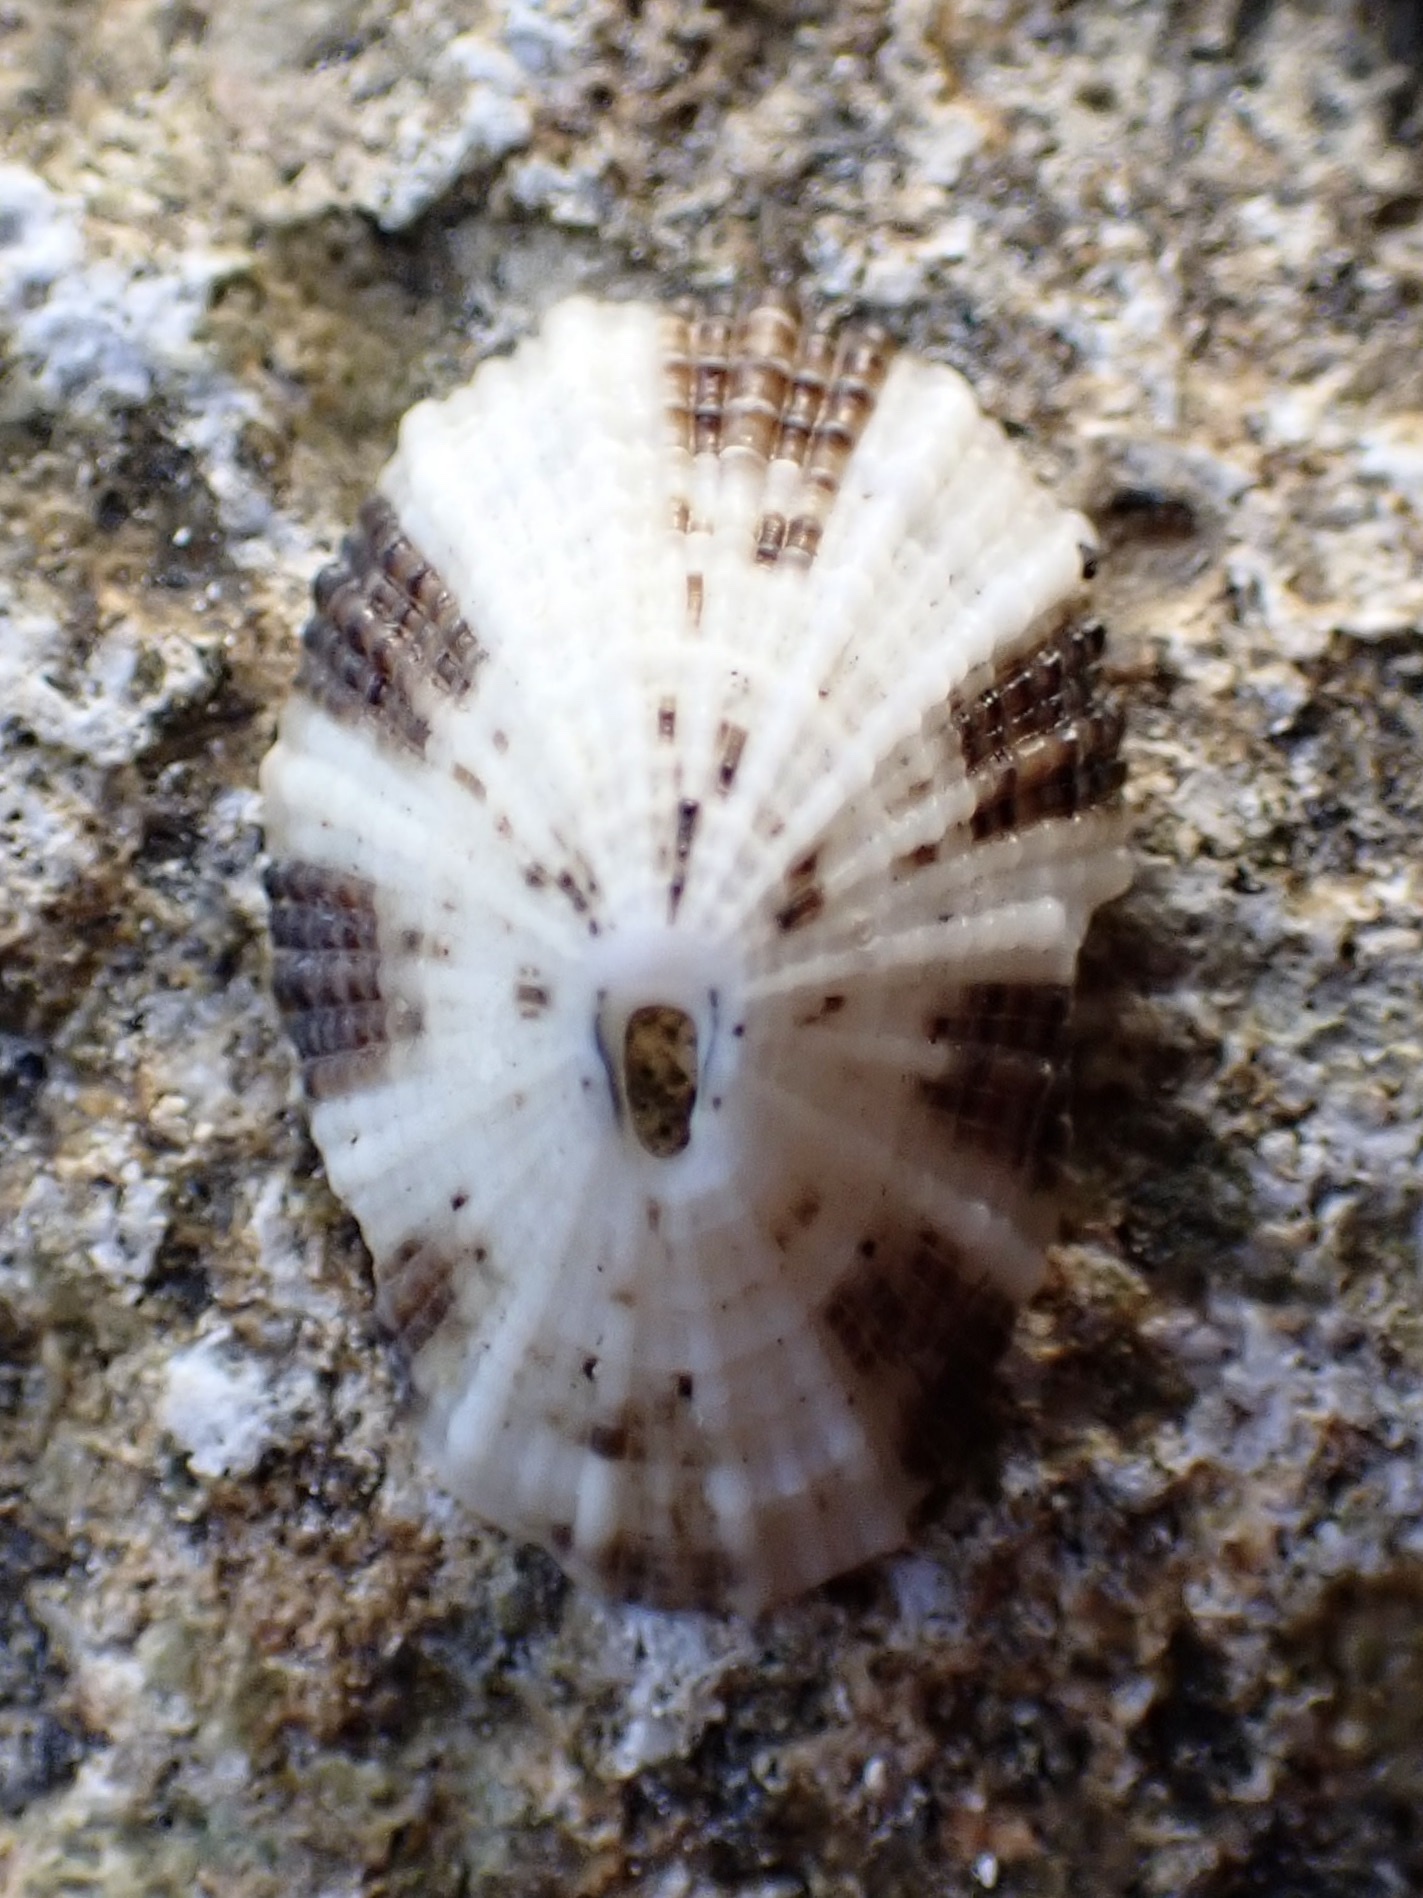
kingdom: Animalia
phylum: Mollusca
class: Gastropoda
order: Lepetellida
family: Fissurellidae
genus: Diodora
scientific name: Diodora dysoni
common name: Dyson's keyhole limpet
